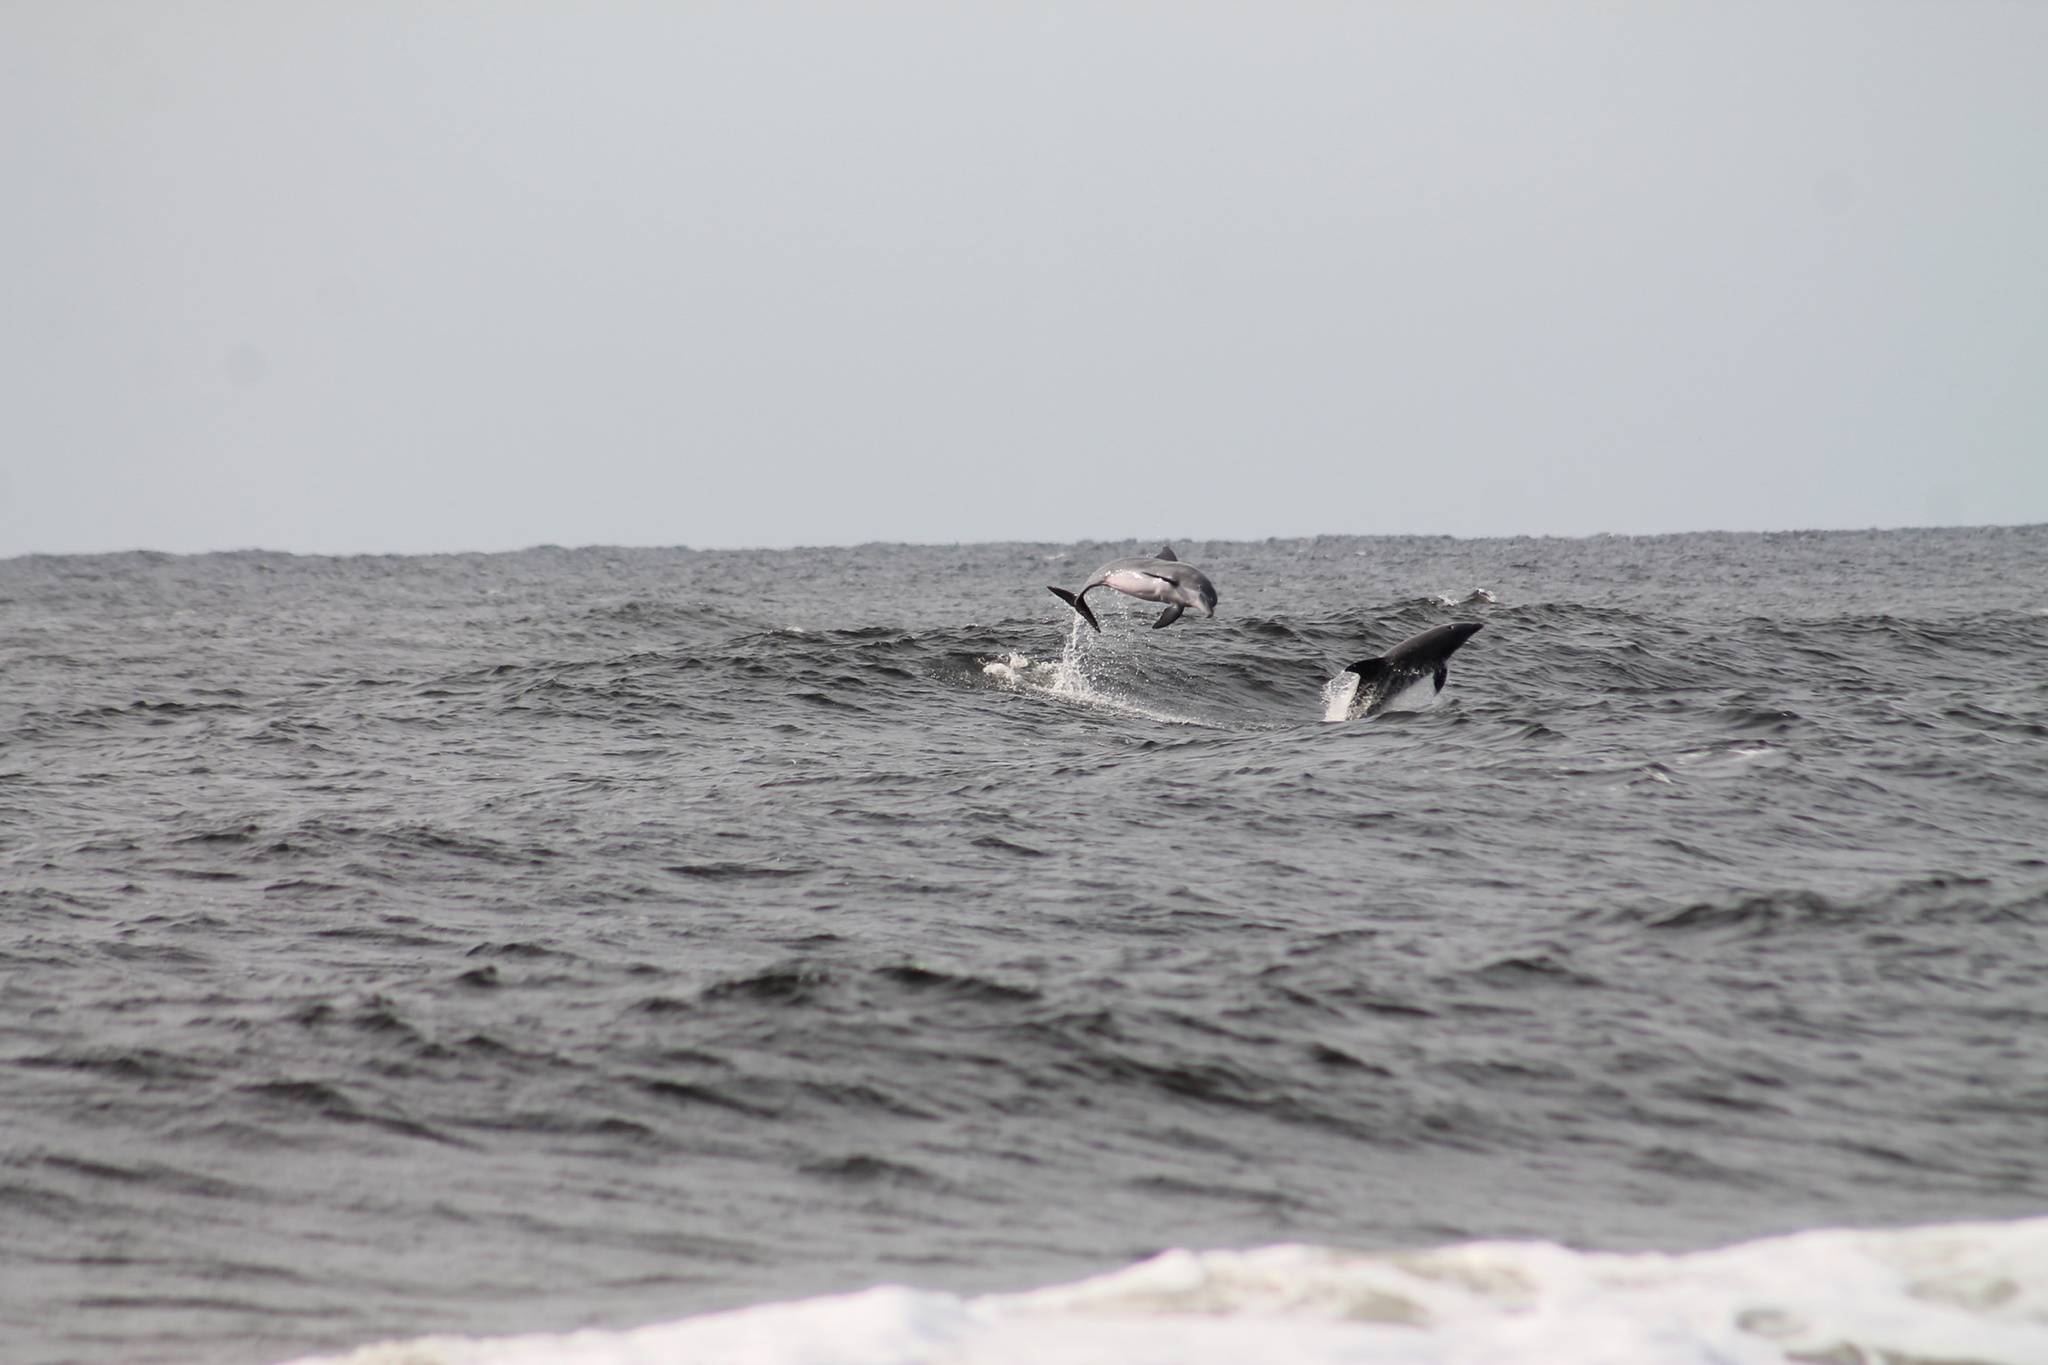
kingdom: Animalia
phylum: Chordata
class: Mammalia
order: Cetacea
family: Delphinidae
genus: Tursiops
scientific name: Tursiops truncatus
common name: Bottlenose dolphin
